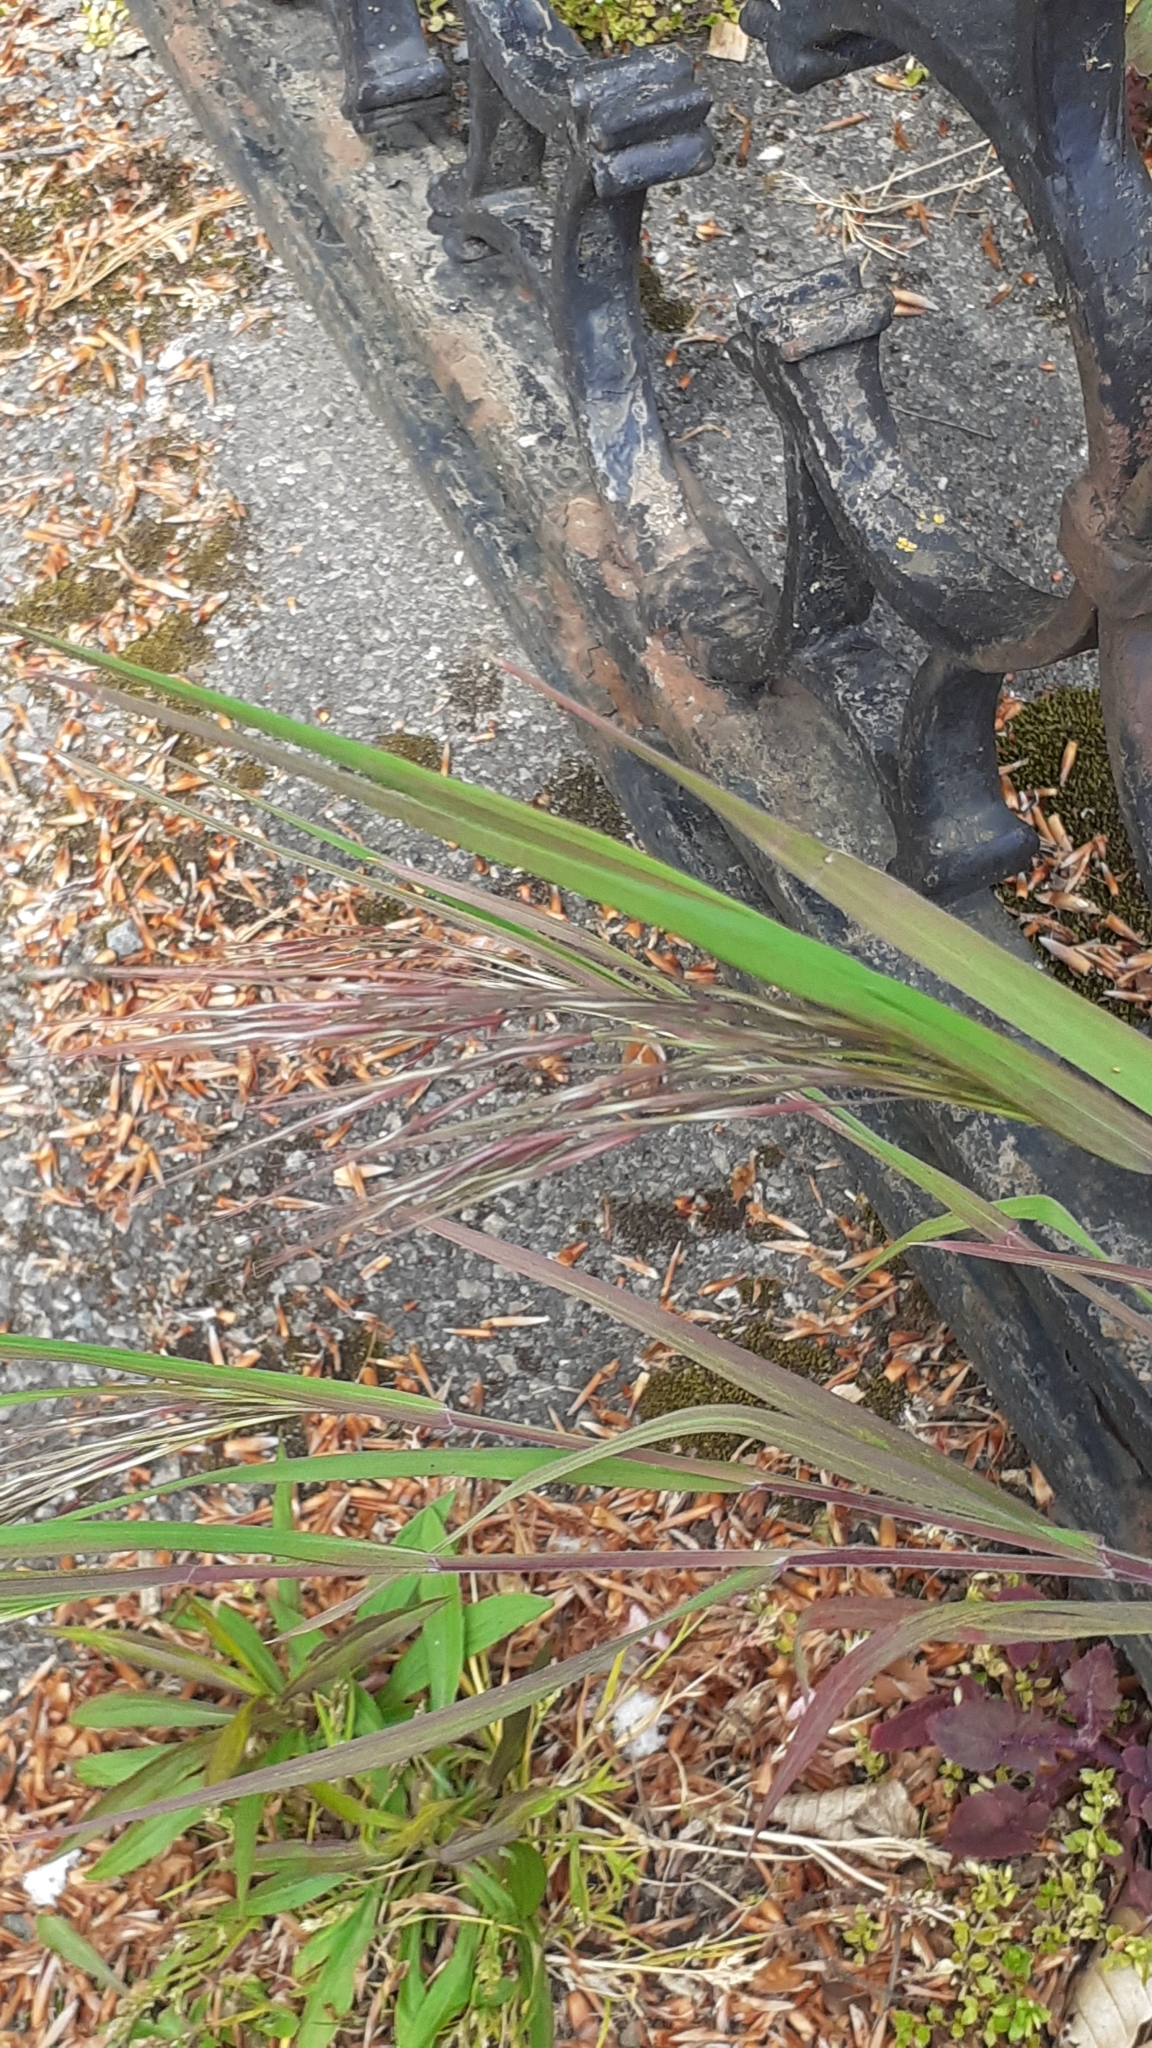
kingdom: Plantae
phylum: Tracheophyta
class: Liliopsida
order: Poales
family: Poaceae
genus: Bromus
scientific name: Bromus sterilis
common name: Poverty brome
